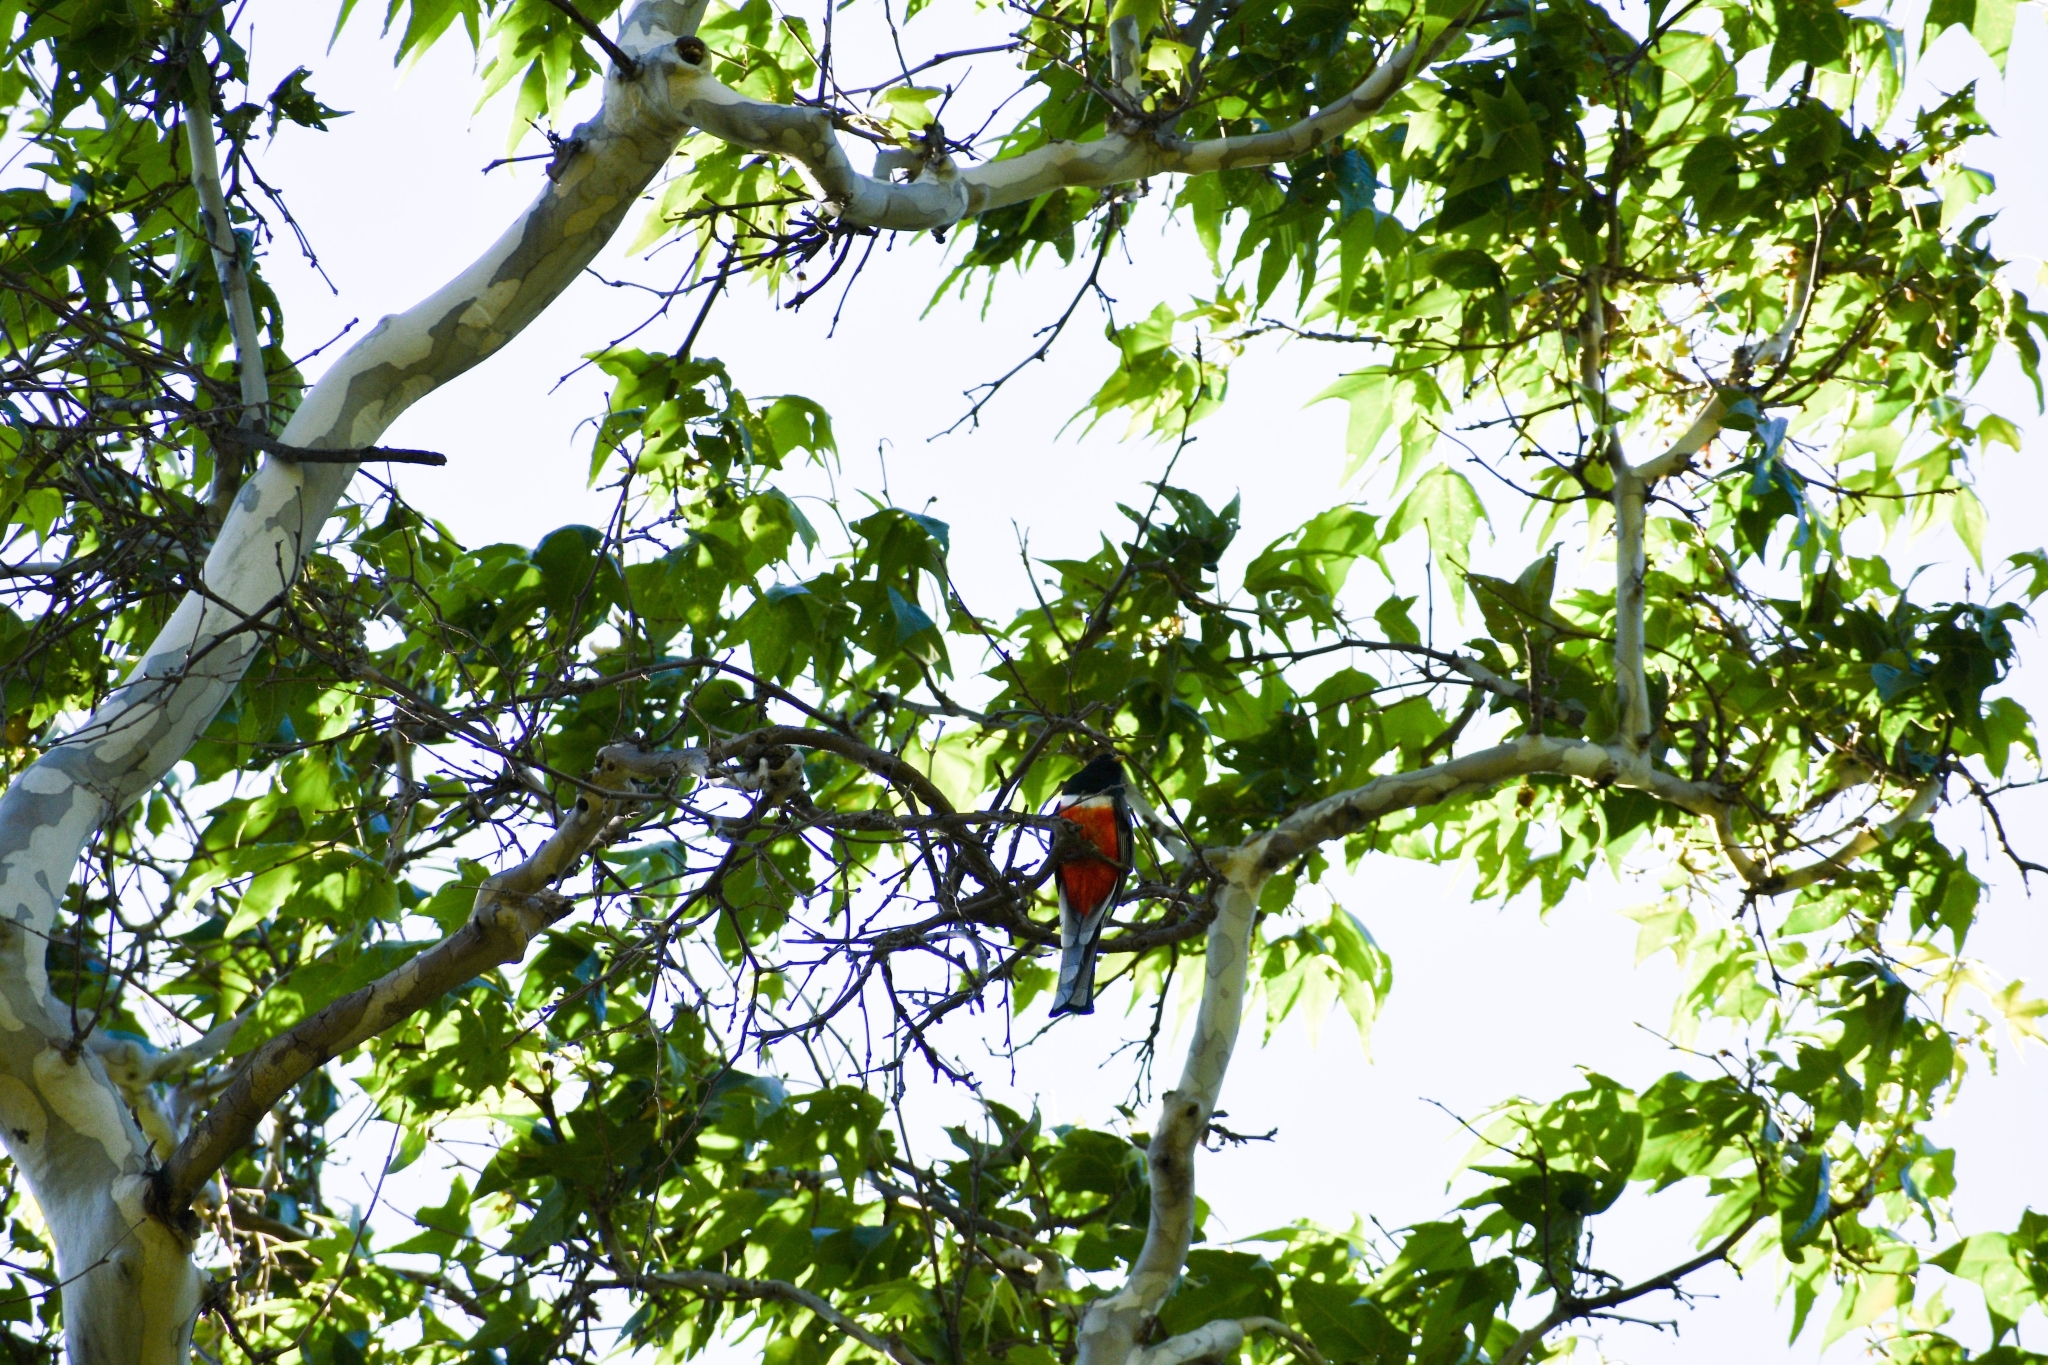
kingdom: Animalia
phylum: Chordata
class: Aves
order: Trogoniformes
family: Trogonidae
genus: Trogon
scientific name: Trogon elegans
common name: Elegant trogon
